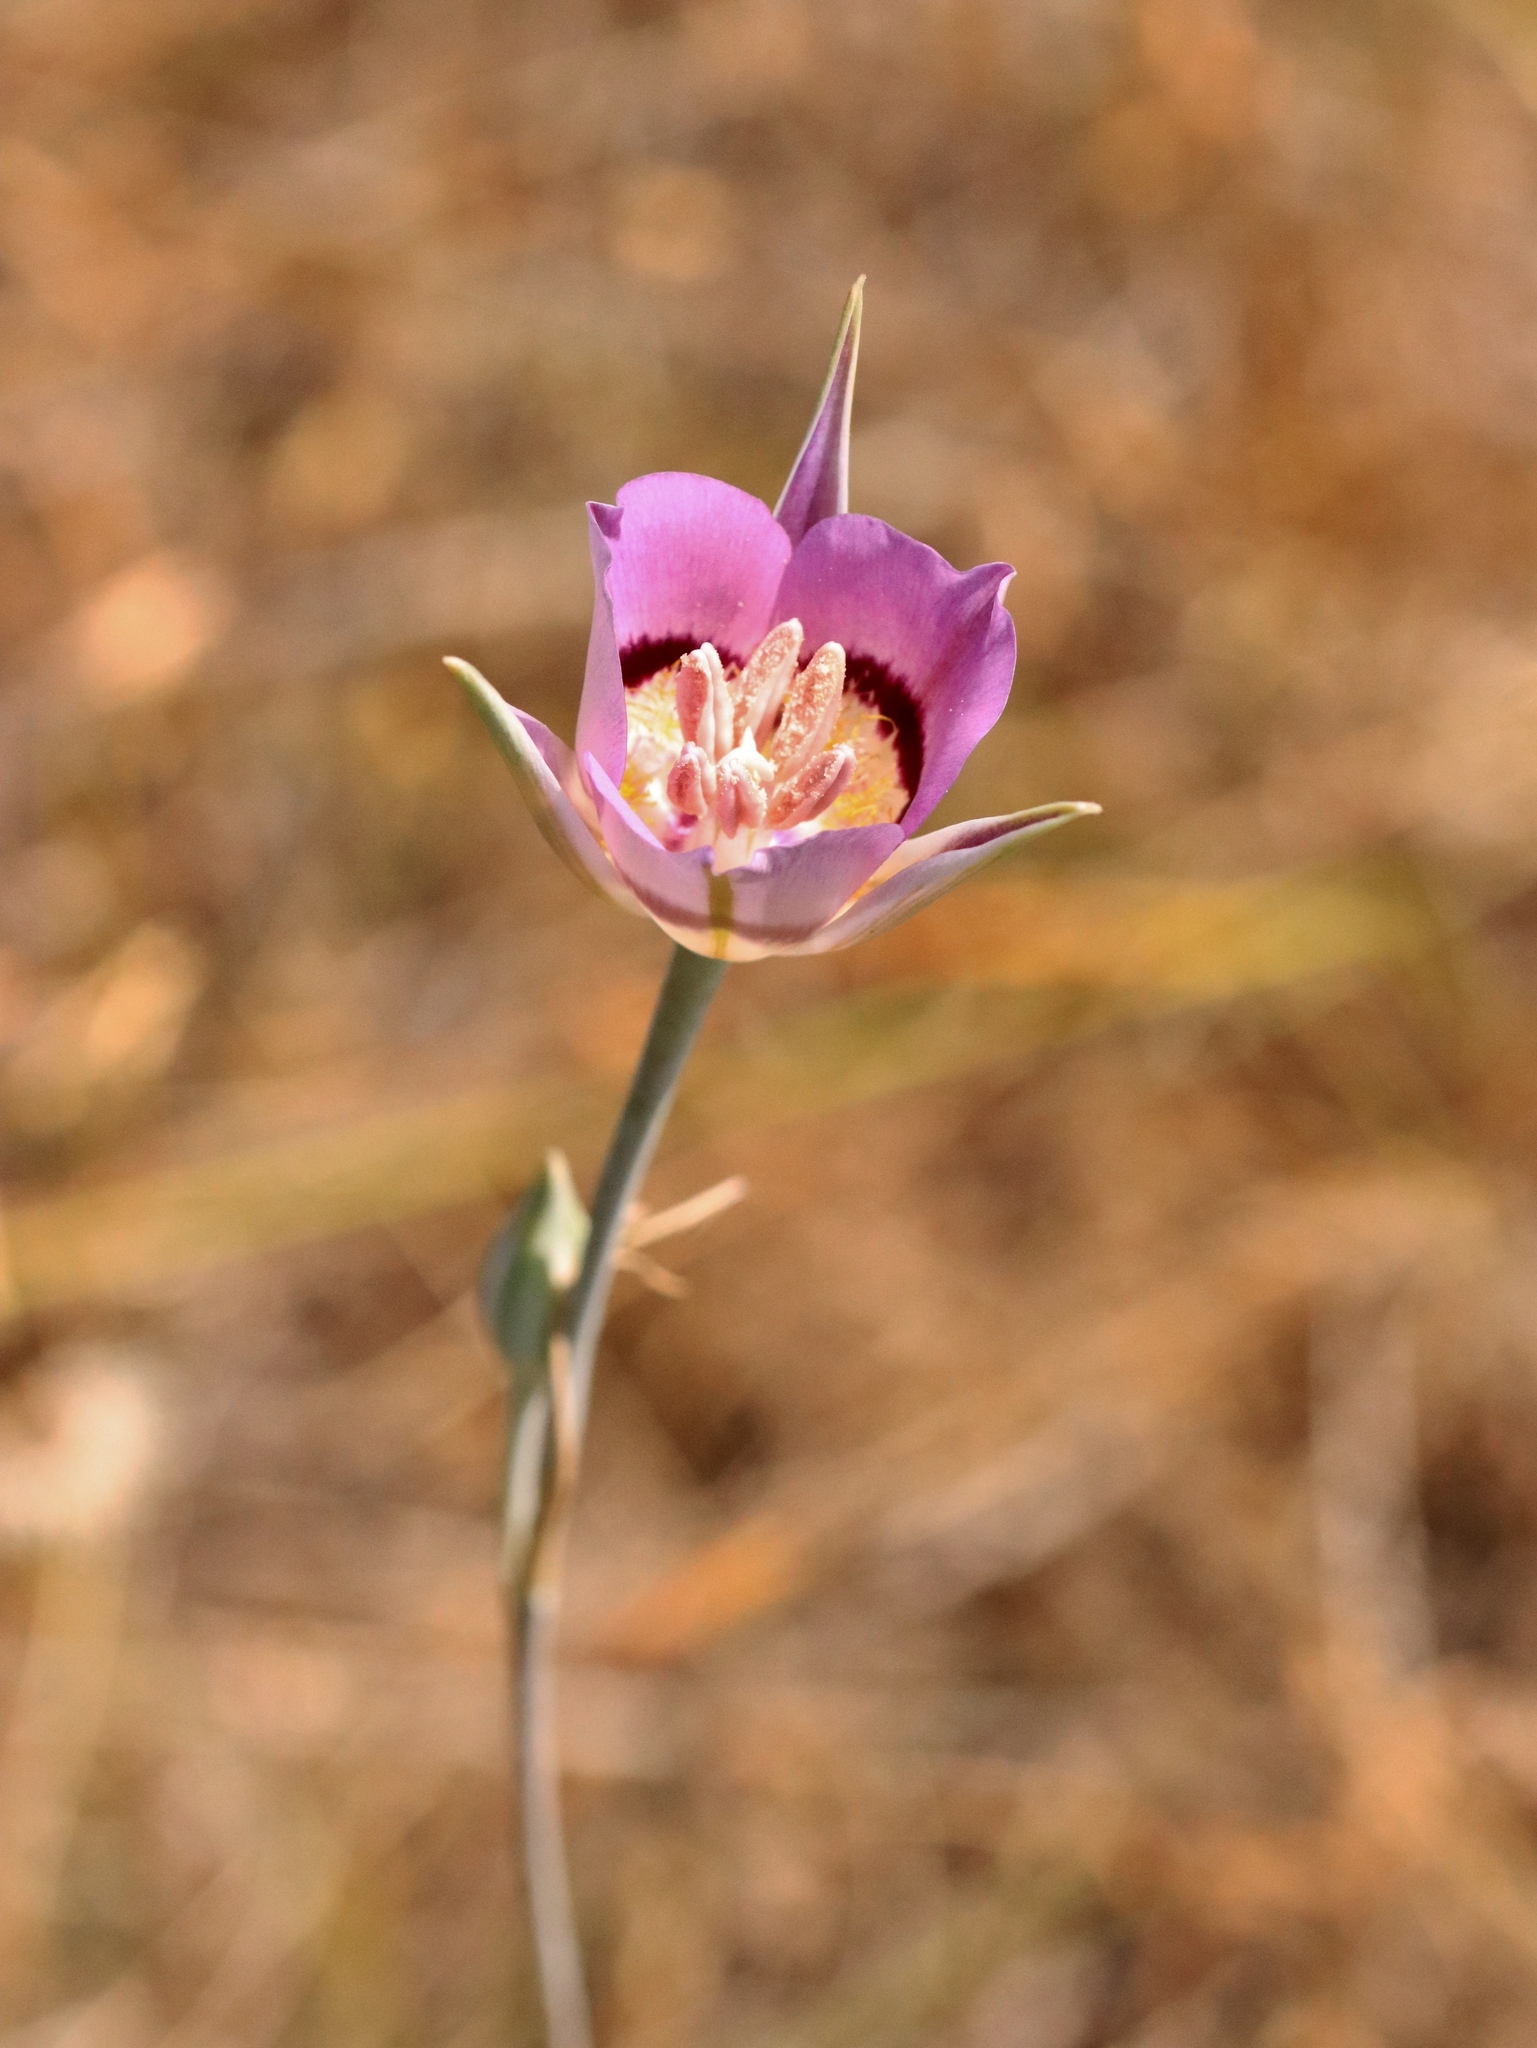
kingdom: Plantae
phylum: Tracheophyta
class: Liliopsida
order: Liliales
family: Liliaceae
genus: Calochortus
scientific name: Calochortus macrocarpus
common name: Green-band mariposa lily
